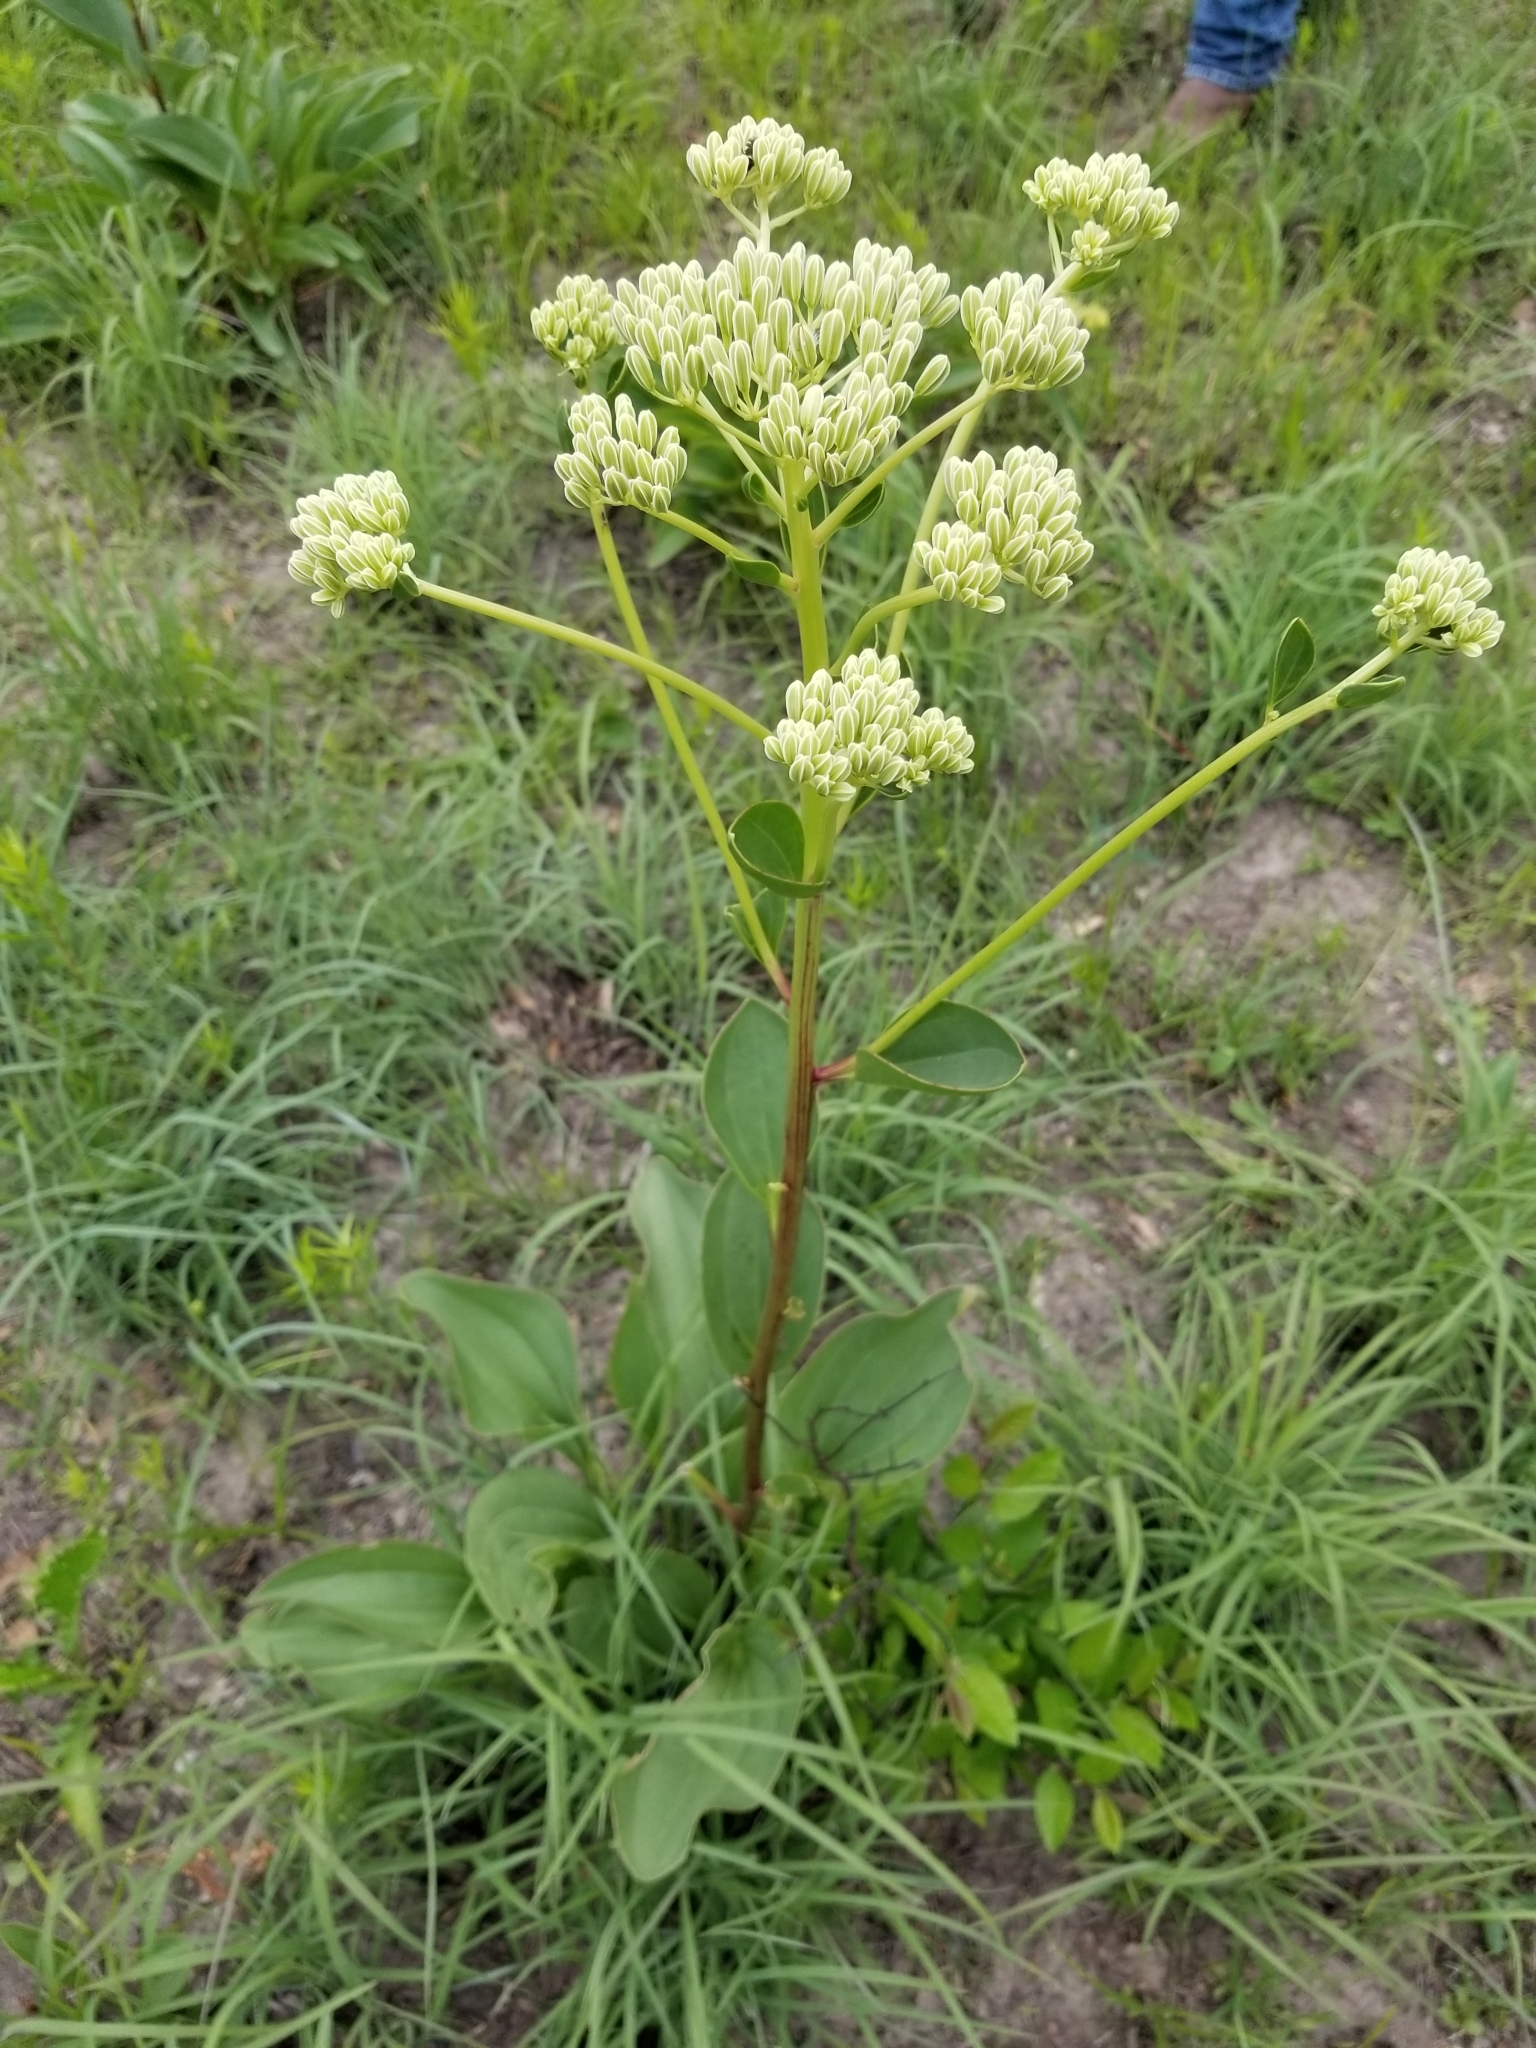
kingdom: Plantae
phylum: Tracheophyta
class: Magnoliopsida
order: Asterales
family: Asteraceae
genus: Arnoglossum
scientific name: Arnoglossum plantagineum
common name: Groove-stemmed indian-plantain
